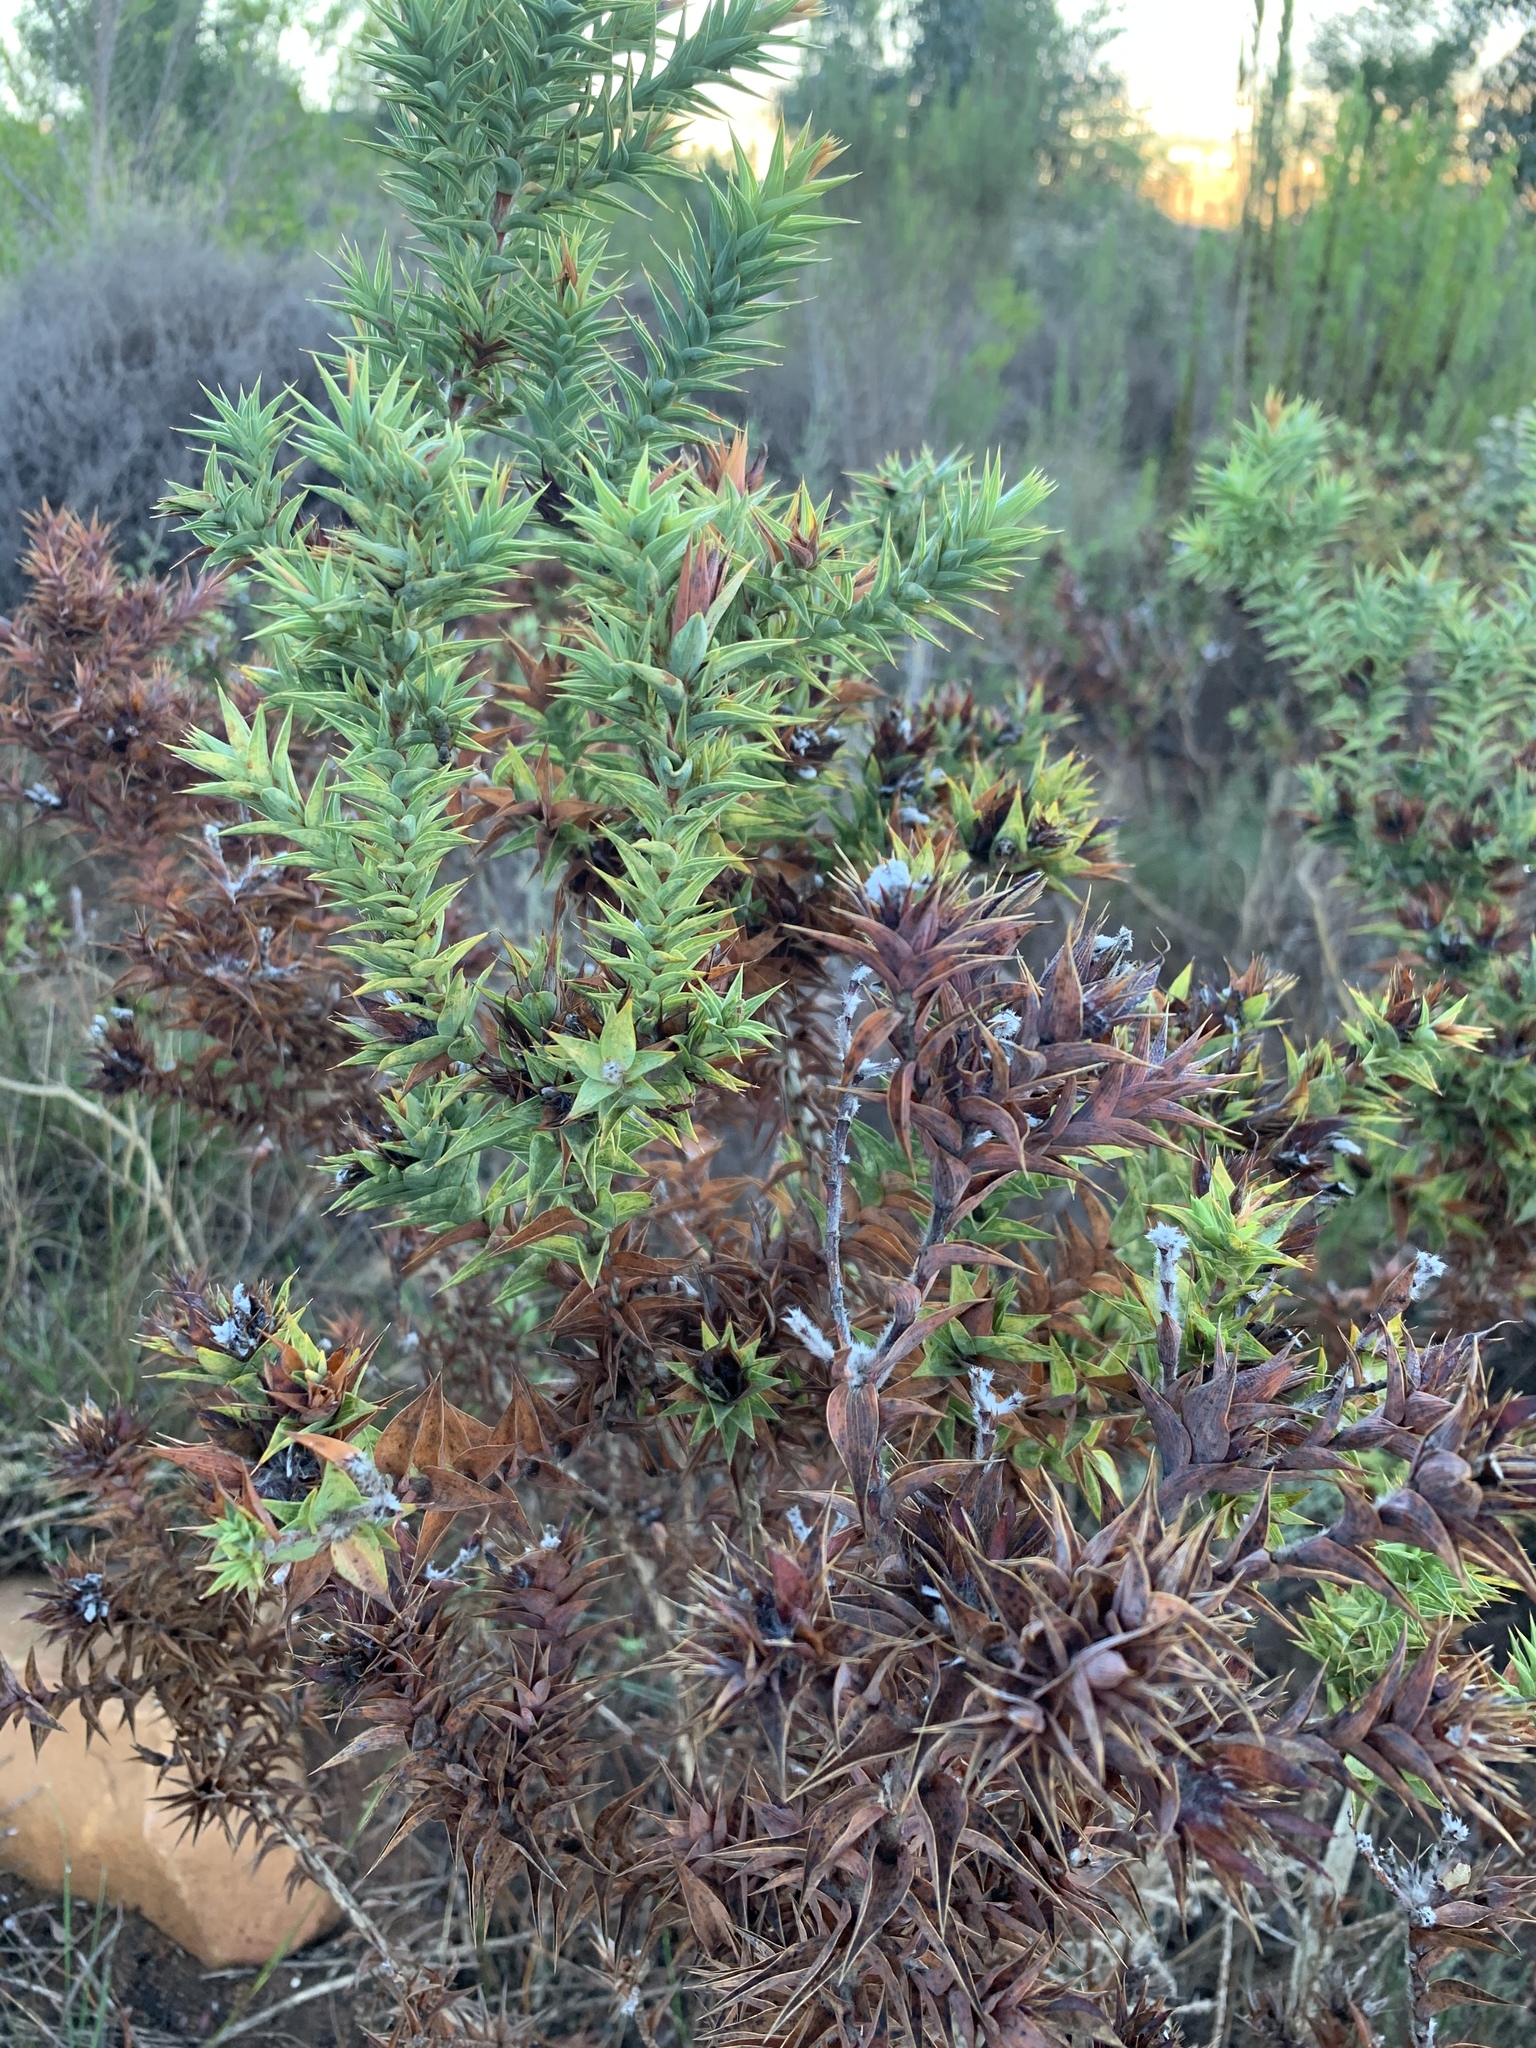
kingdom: Plantae
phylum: Tracheophyta
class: Magnoliopsida
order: Fabales
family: Fabaceae
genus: Aspalathus
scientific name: Aspalathus cordata
